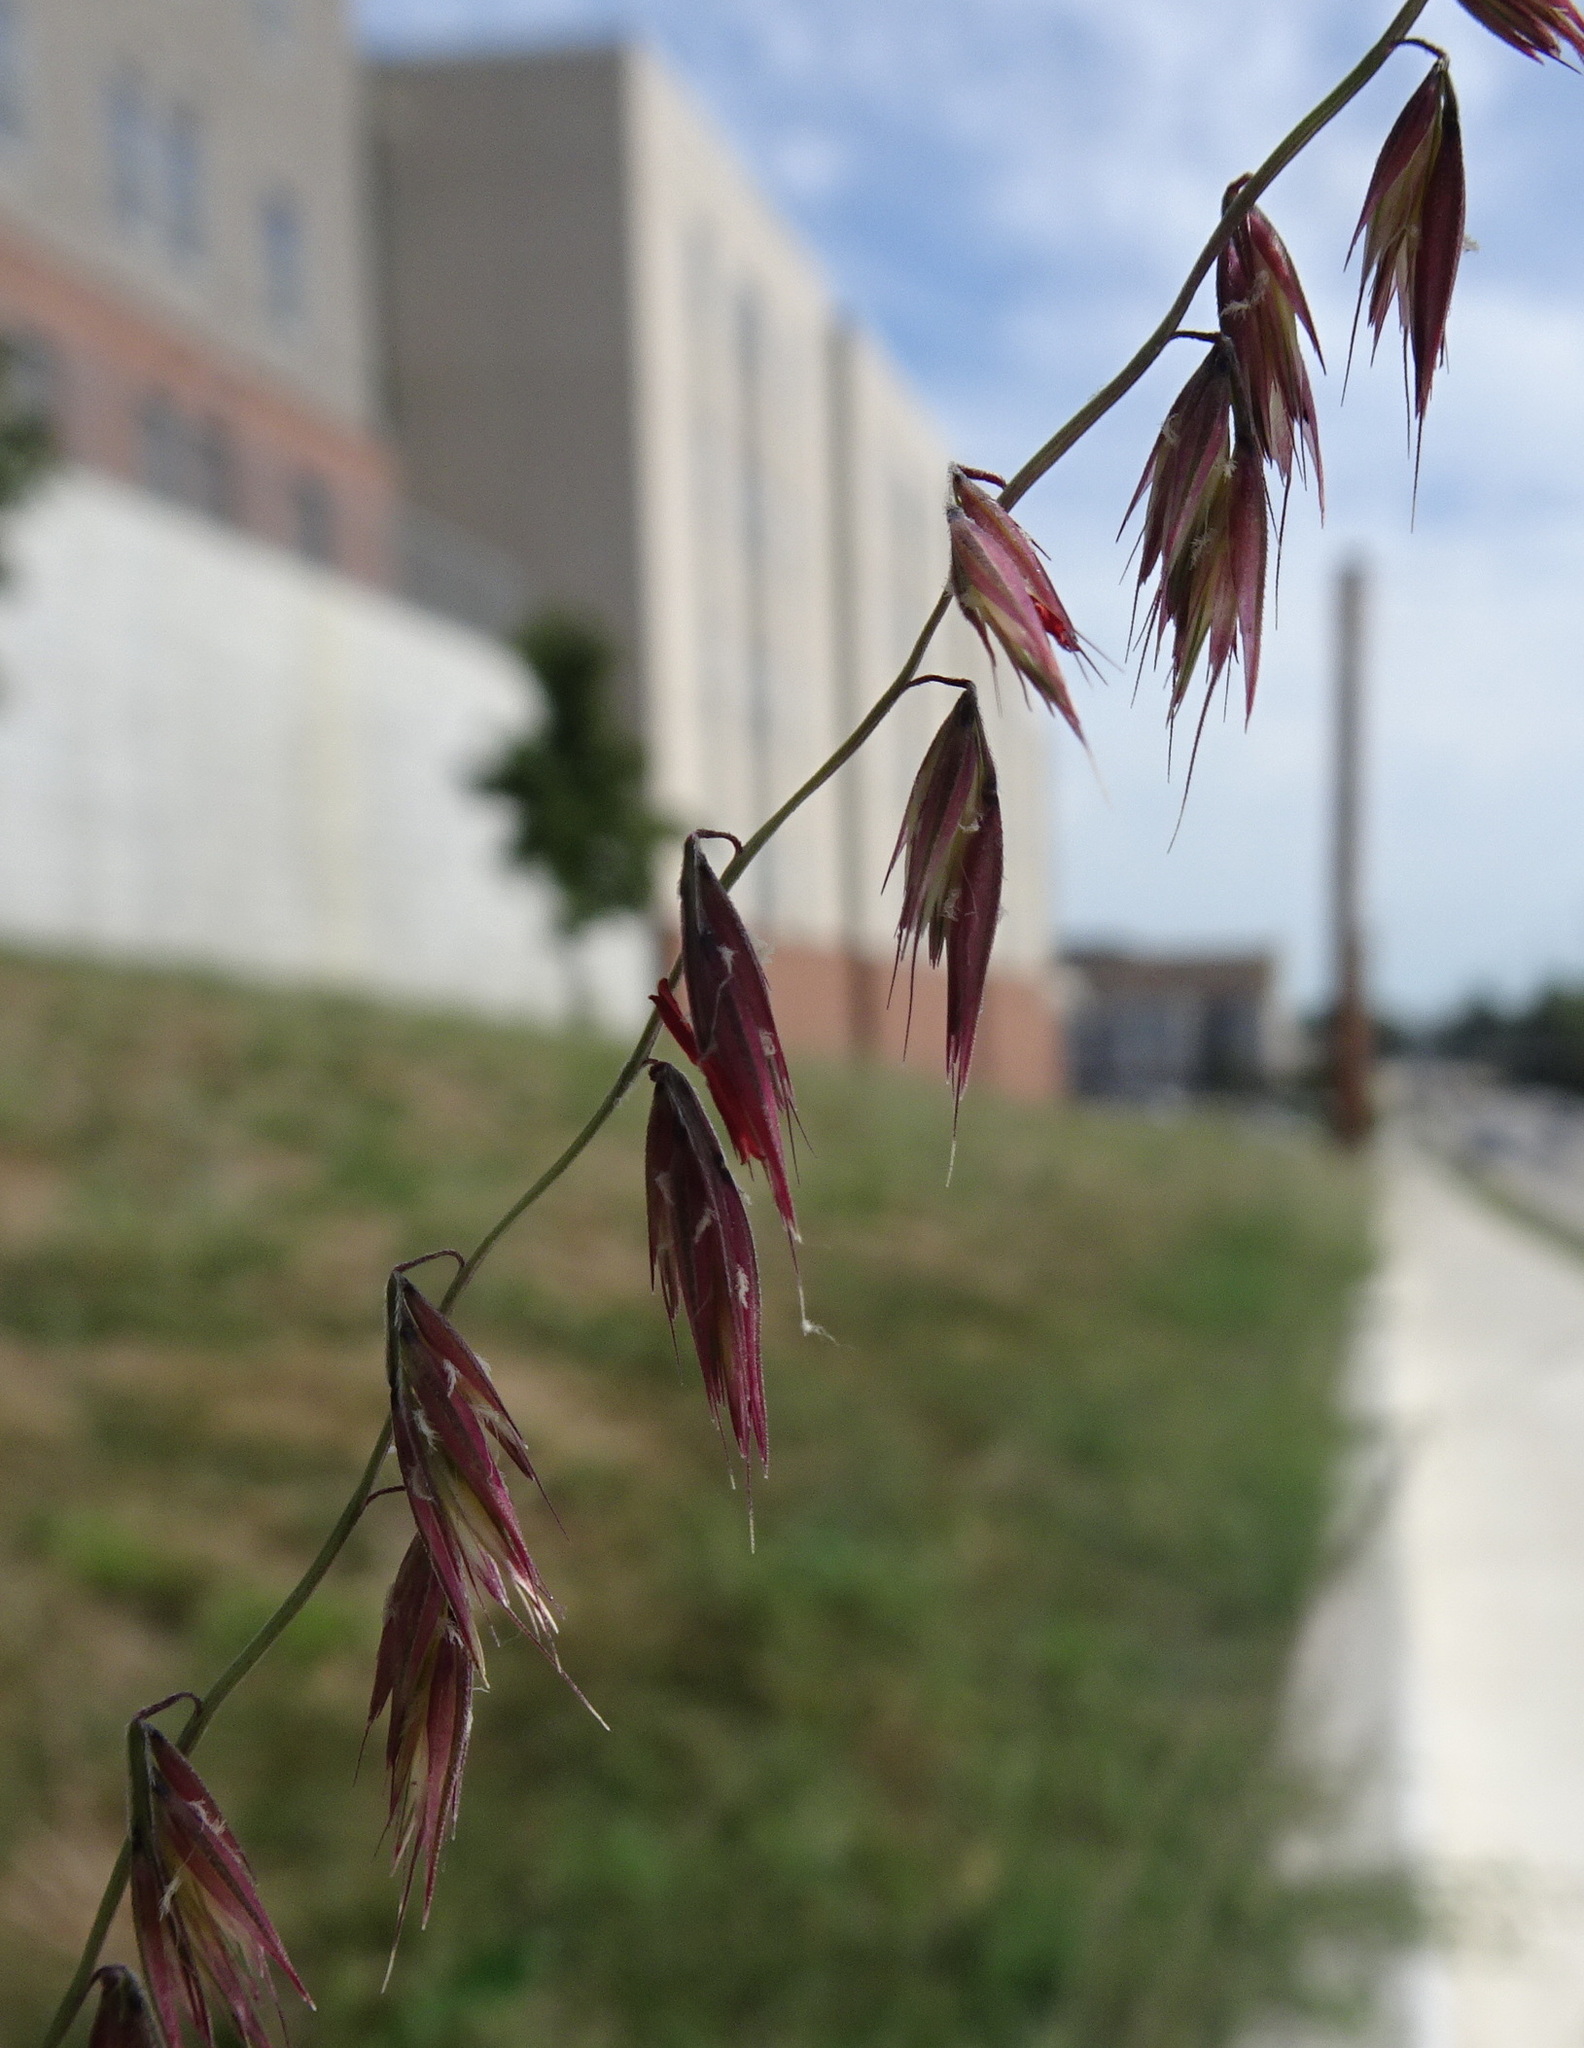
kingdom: Plantae
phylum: Tracheophyta
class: Liliopsida
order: Poales
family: Poaceae
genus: Bouteloua
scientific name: Bouteloua curtipendula
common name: Side-oats grama
